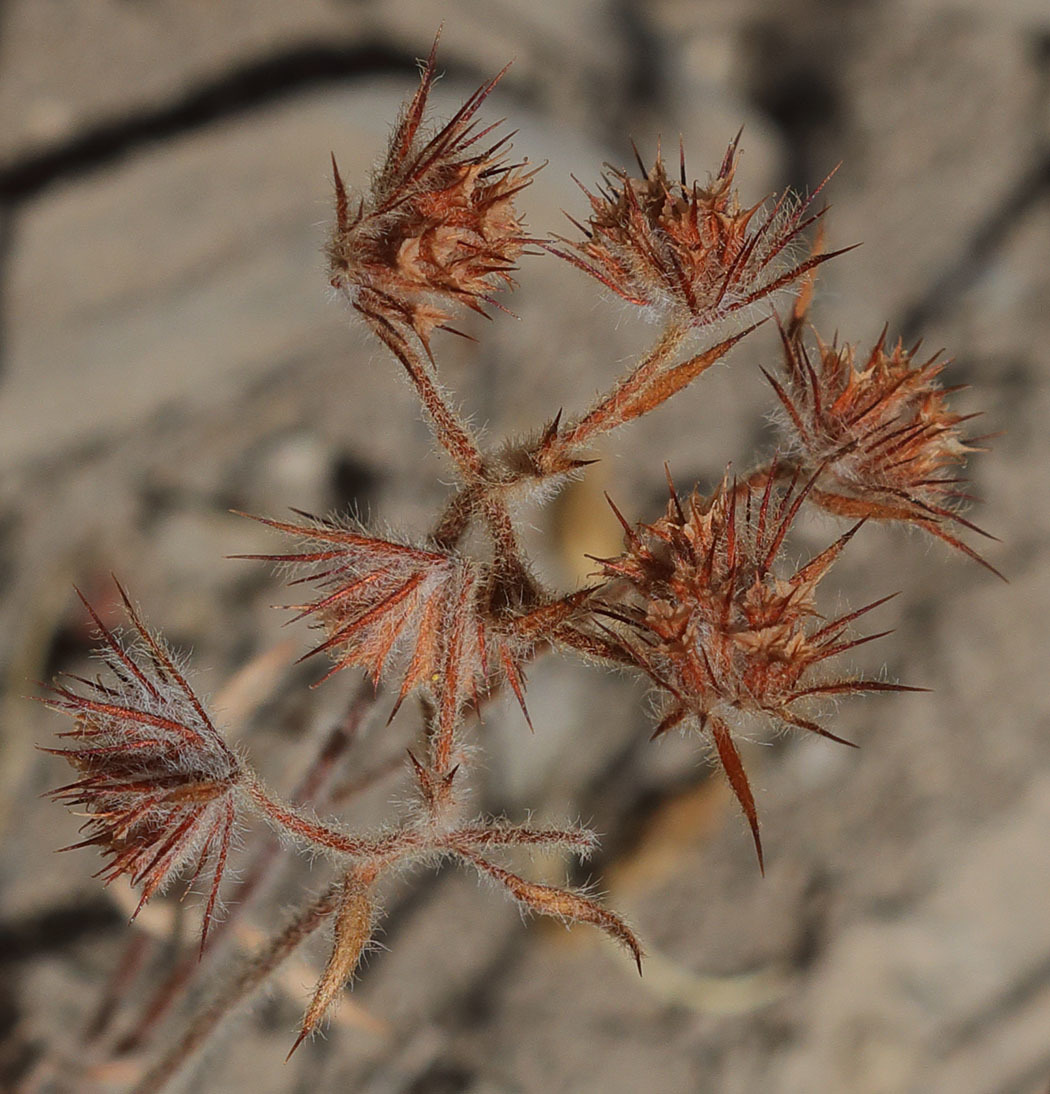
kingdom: Plantae
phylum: Tracheophyta
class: Magnoliopsida
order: Caryophyllales
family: Polygonaceae
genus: Chorizanthe
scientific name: Chorizanthe douglasii
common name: Douglas's spineflower
